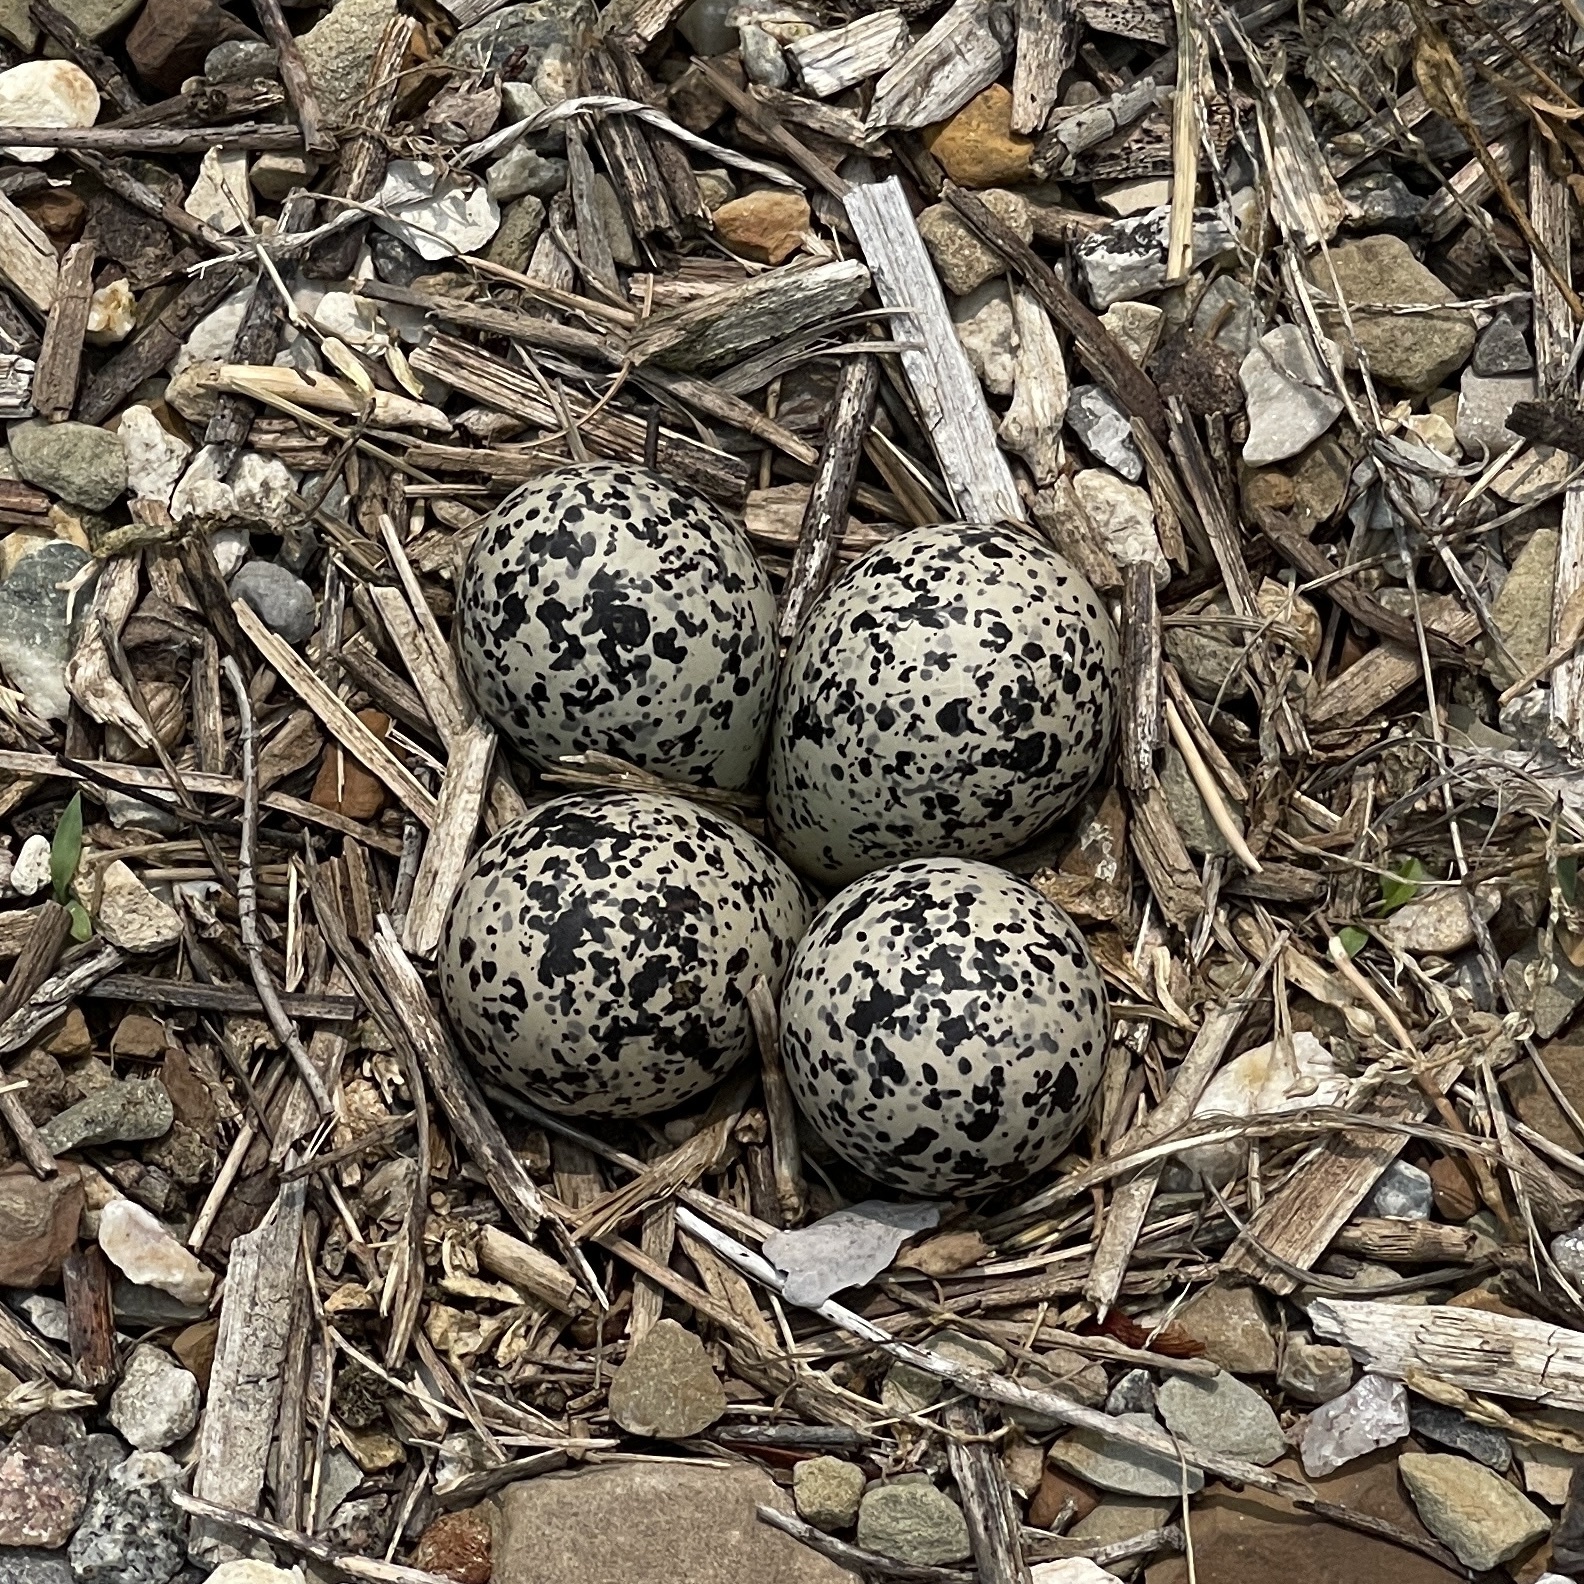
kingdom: Animalia
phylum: Chordata
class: Aves
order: Charadriiformes
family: Charadriidae
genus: Charadrius
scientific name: Charadrius vociferus
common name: Killdeer
